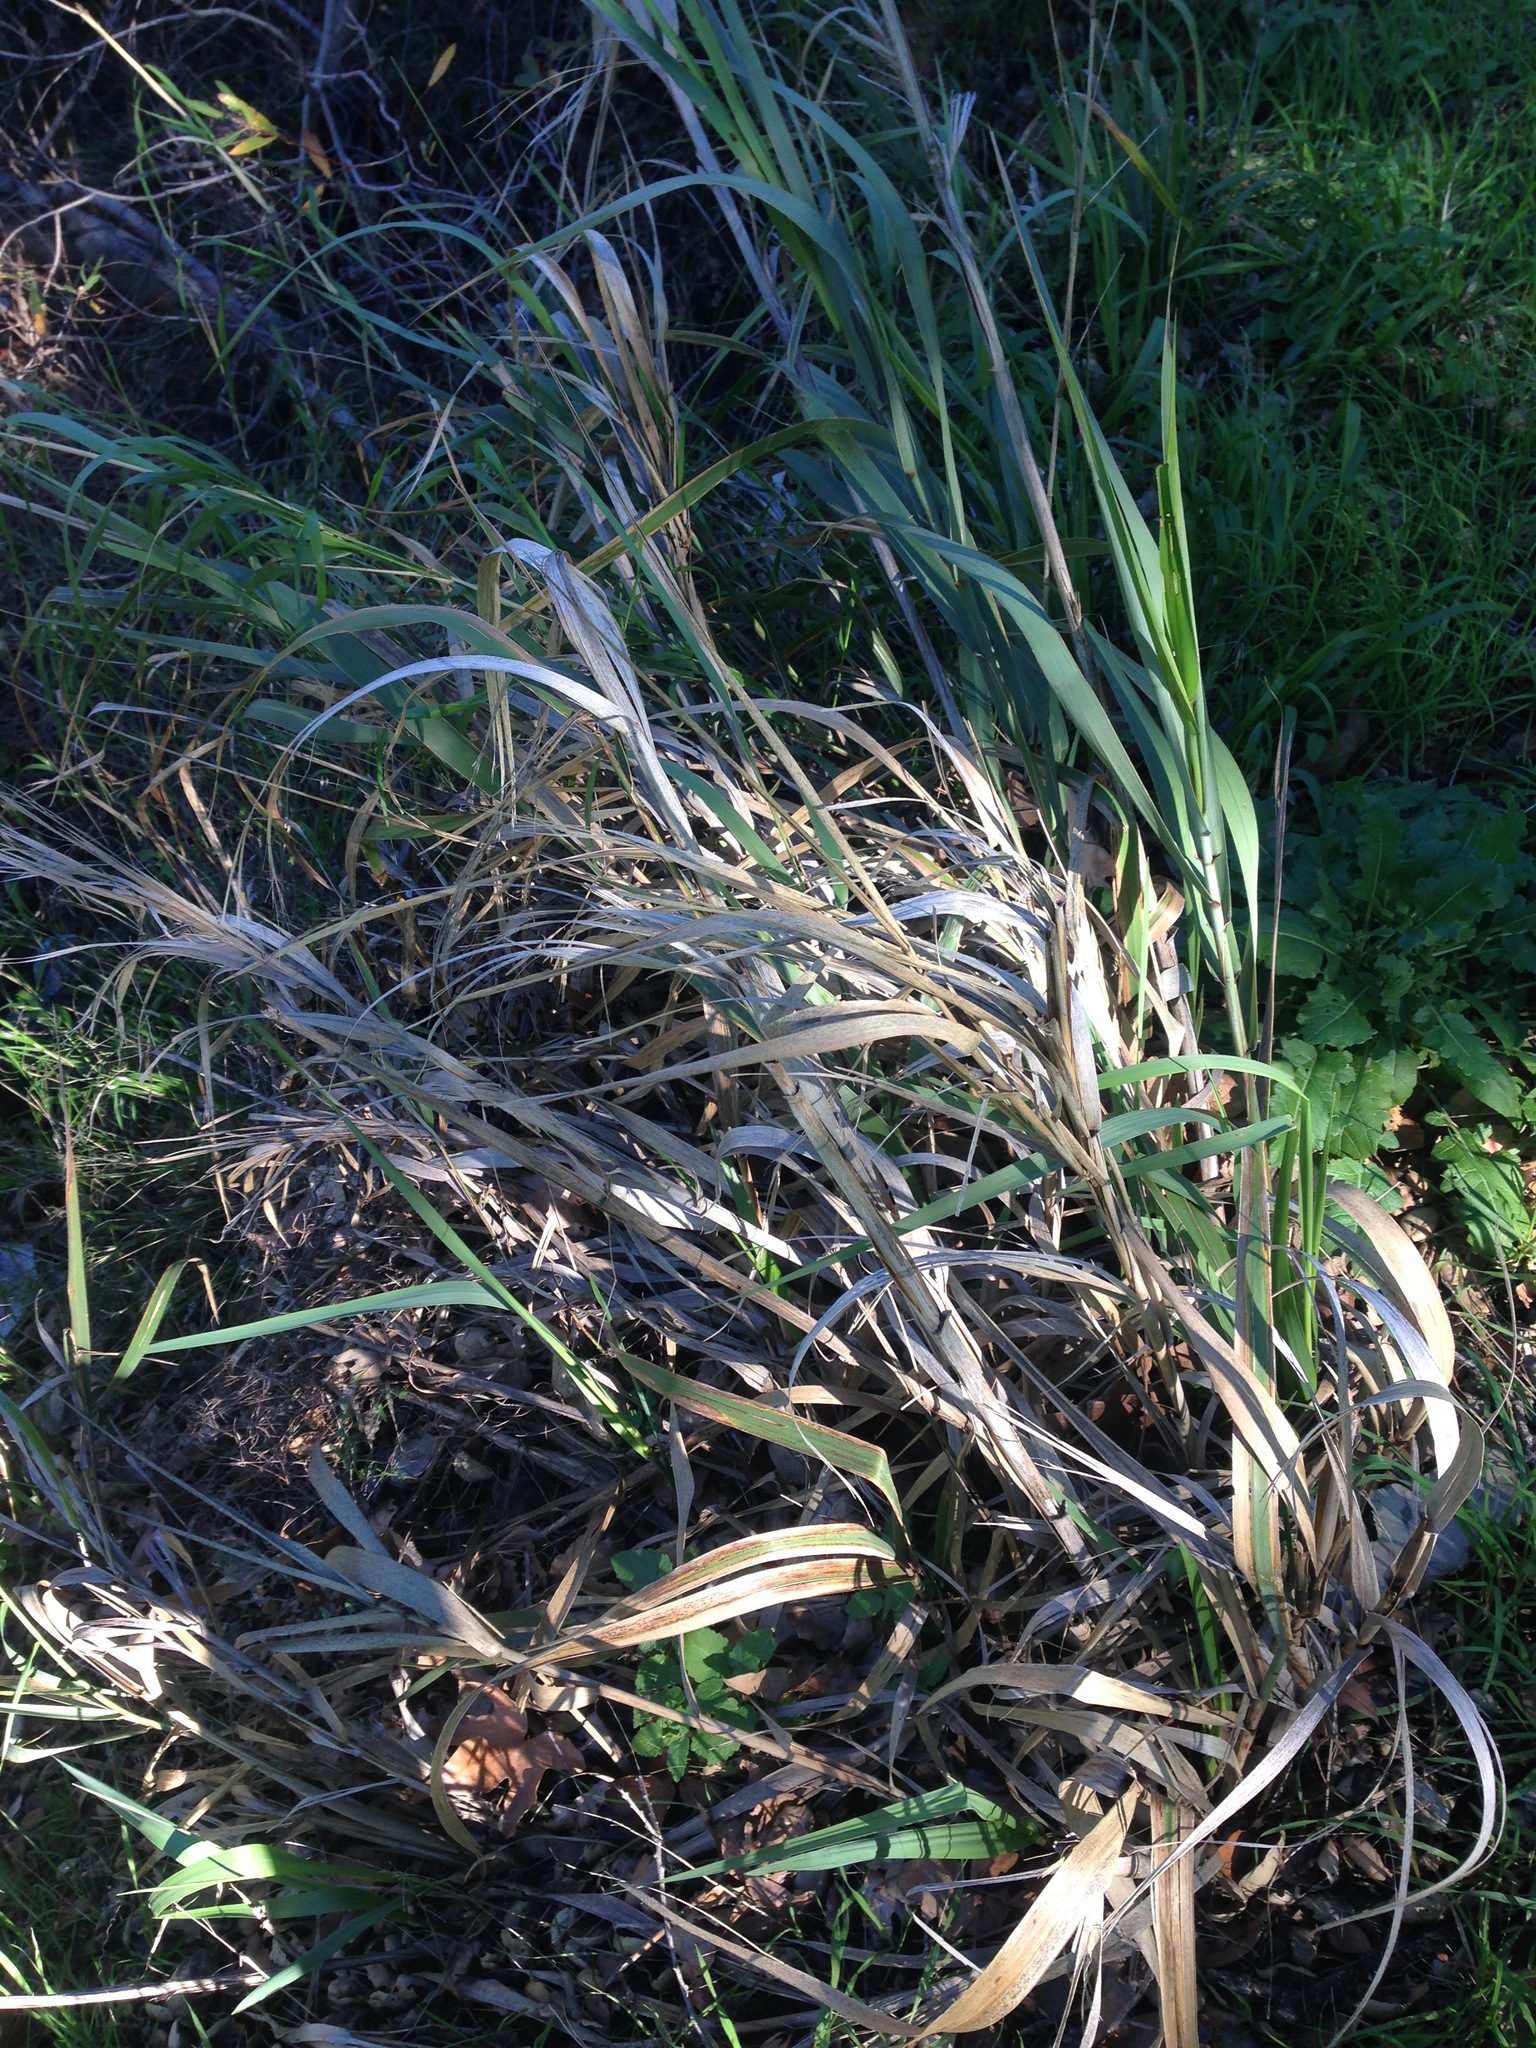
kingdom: Plantae
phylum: Tracheophyta
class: Liliopsida
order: Poales
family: Poaceae
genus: Leymus
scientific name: Leymus condensatus
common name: Giant wild rye
